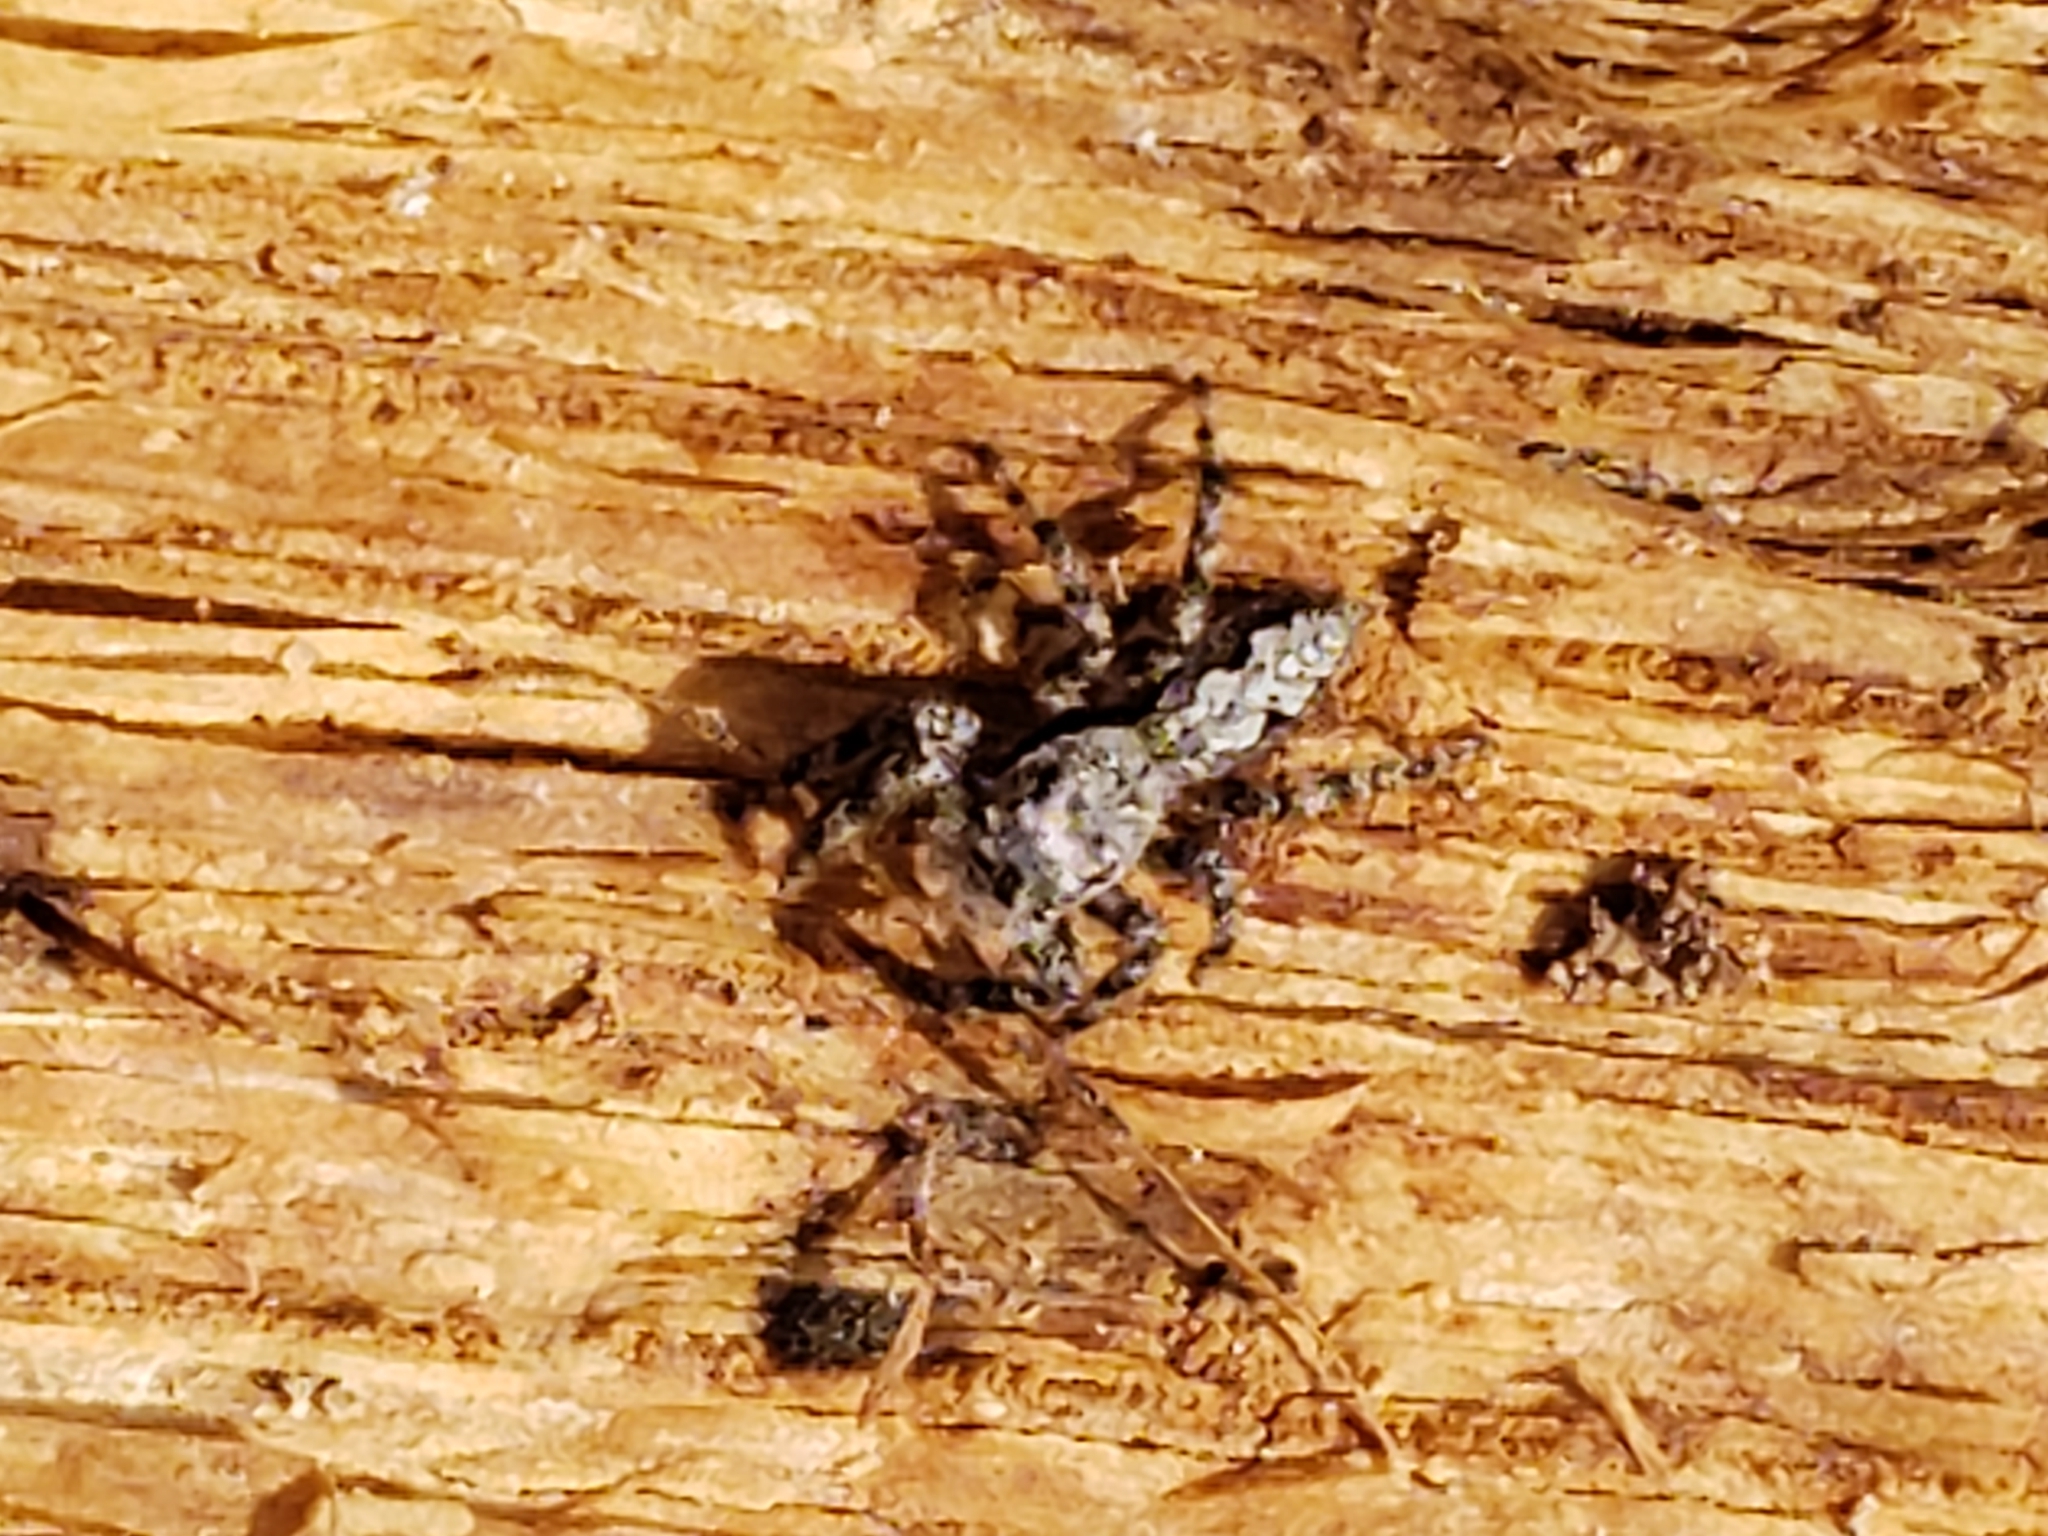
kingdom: Animalia
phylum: Arthropoda
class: Arachnida
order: Araneae
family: Salticidae
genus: Platycryptus
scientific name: Platycryptus undatus
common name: Tan jumping spider
